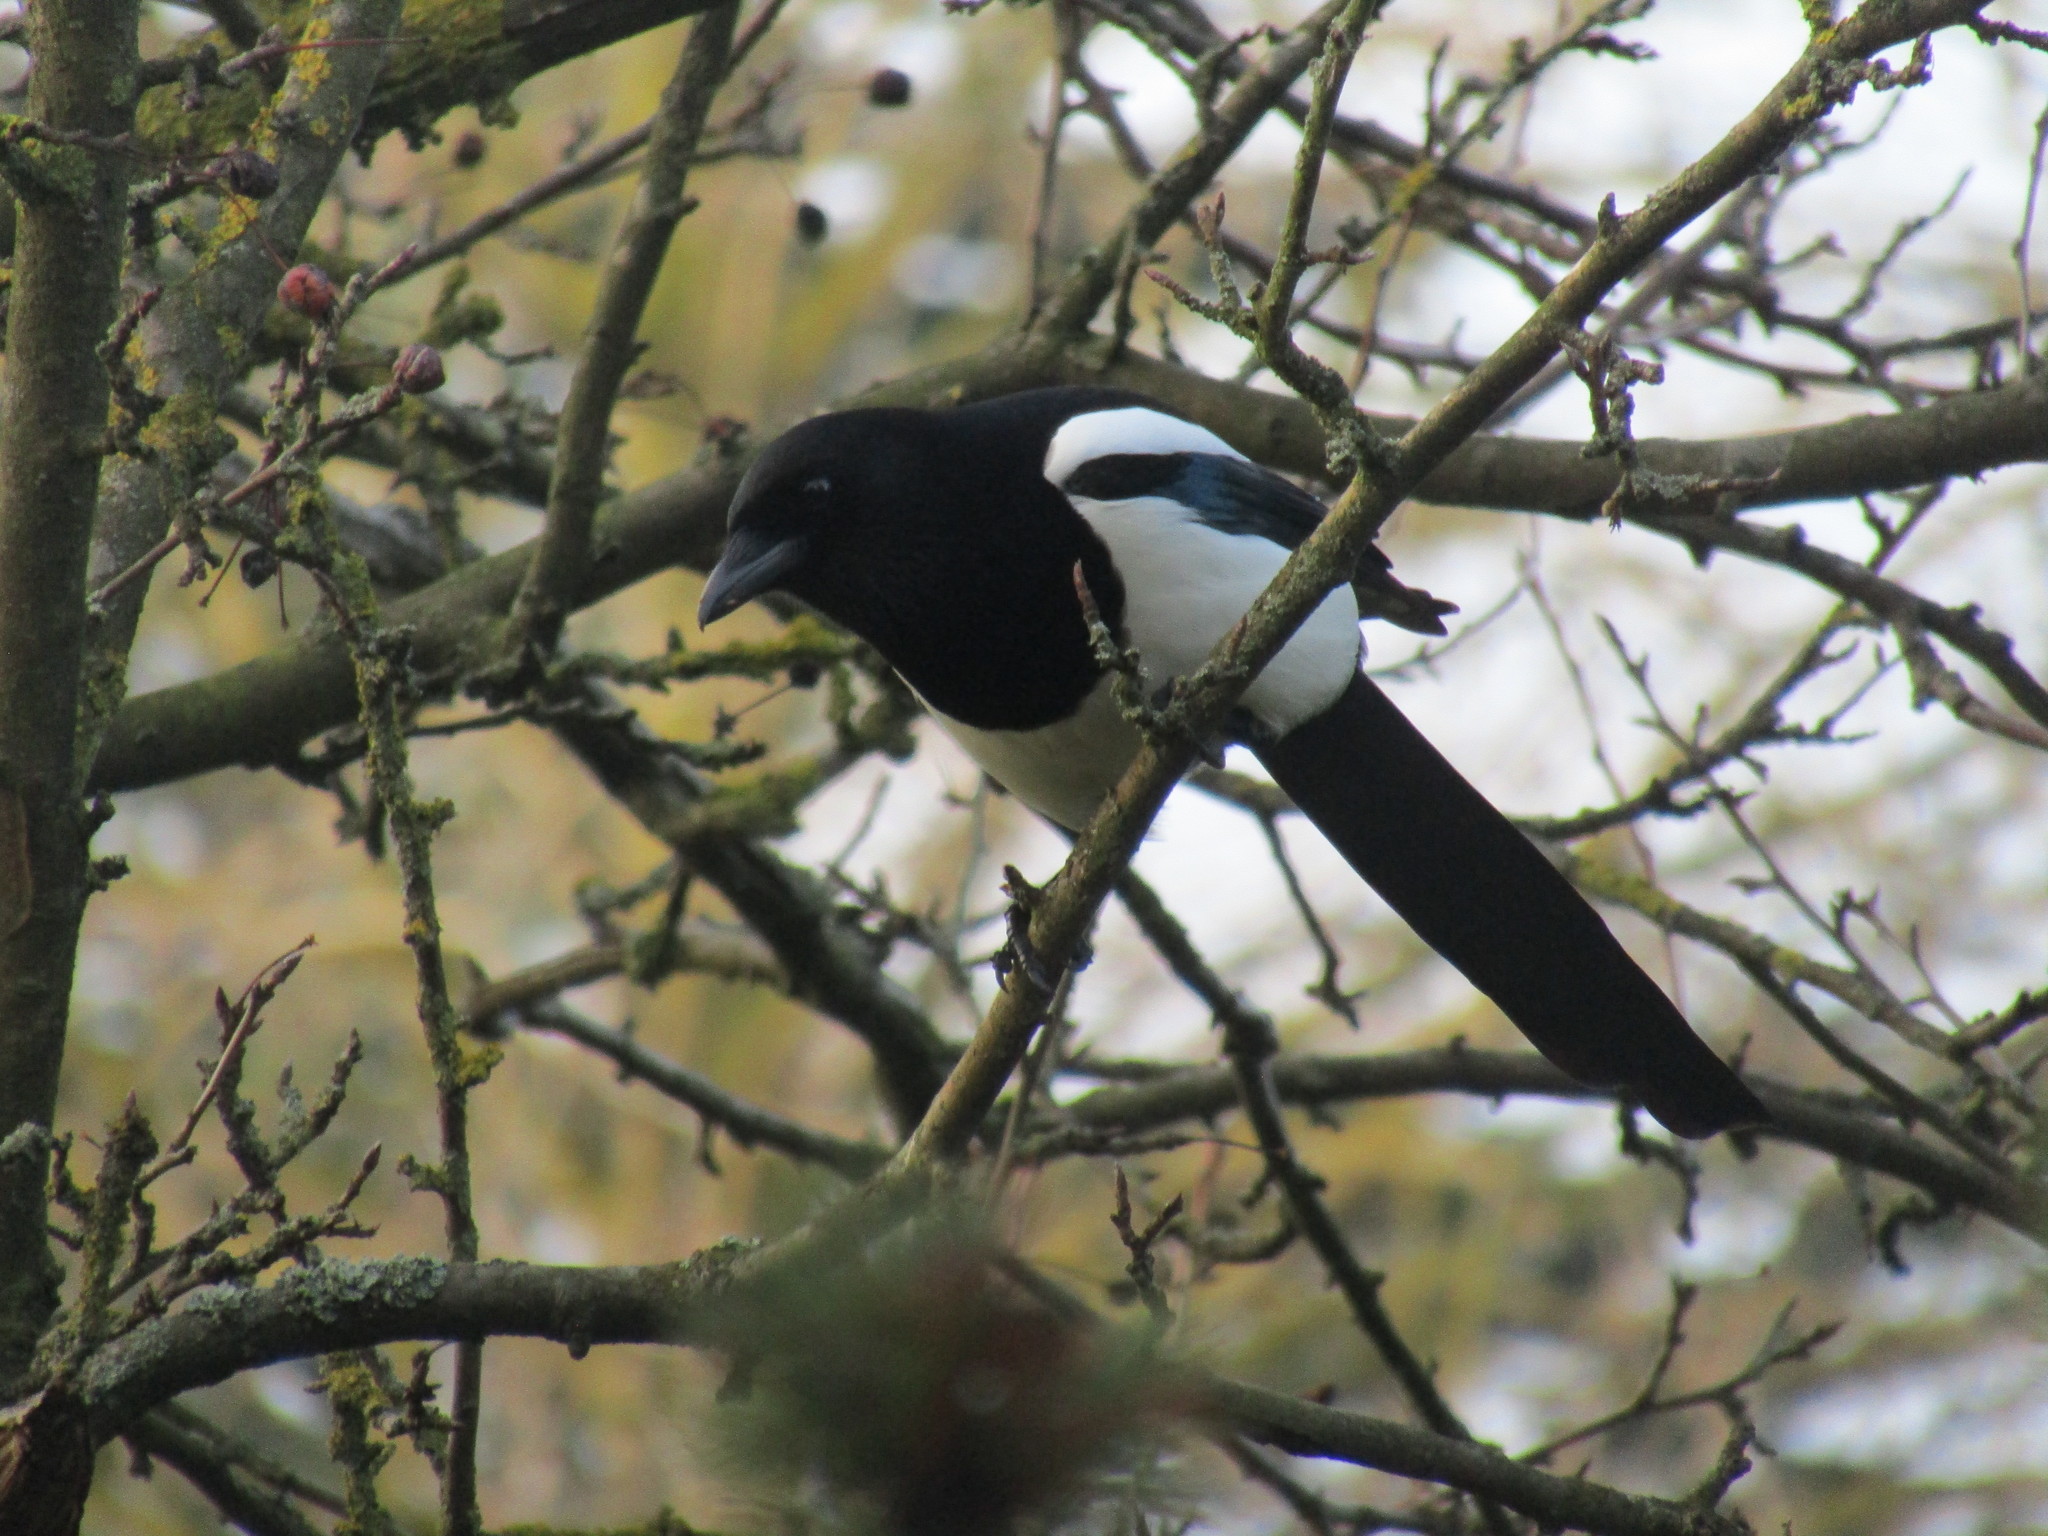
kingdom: Animalia
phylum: Chordata
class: Aves
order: Passeriformes
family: Corvidae
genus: Pica
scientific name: Pica pica
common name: Eurasian magpie
